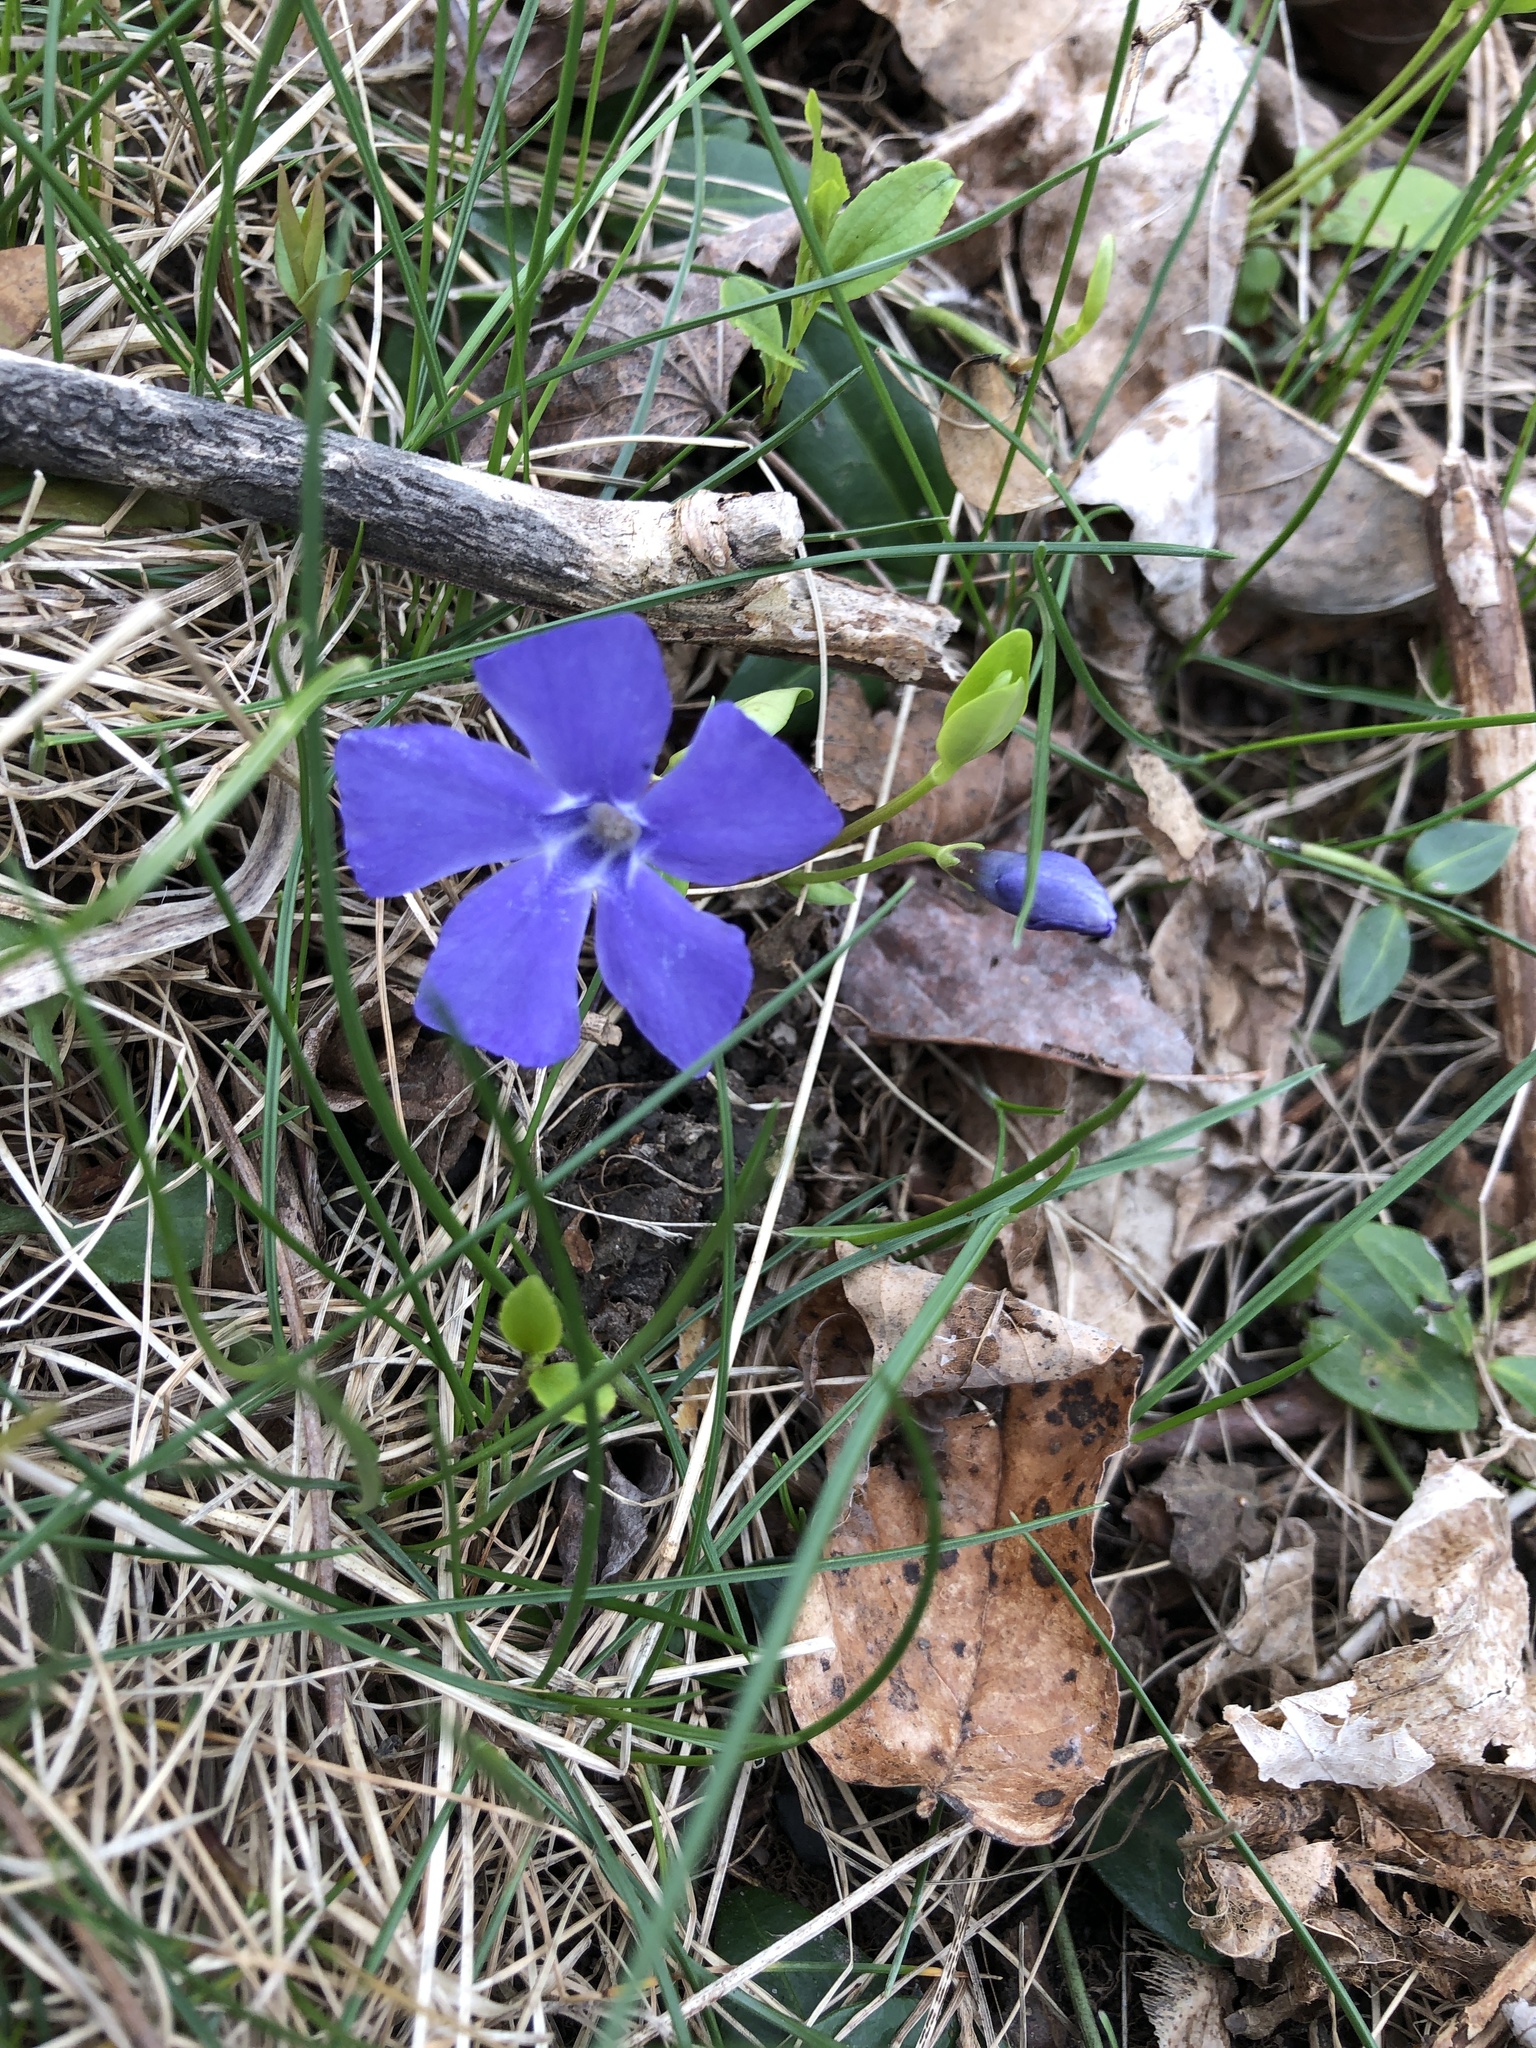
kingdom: Plantae
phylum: Tracheophyta
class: Magnoliopsida
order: Gentianales
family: Apocynaceae
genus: Vinca
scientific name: Vinca minor
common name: Lesser periwinkle
